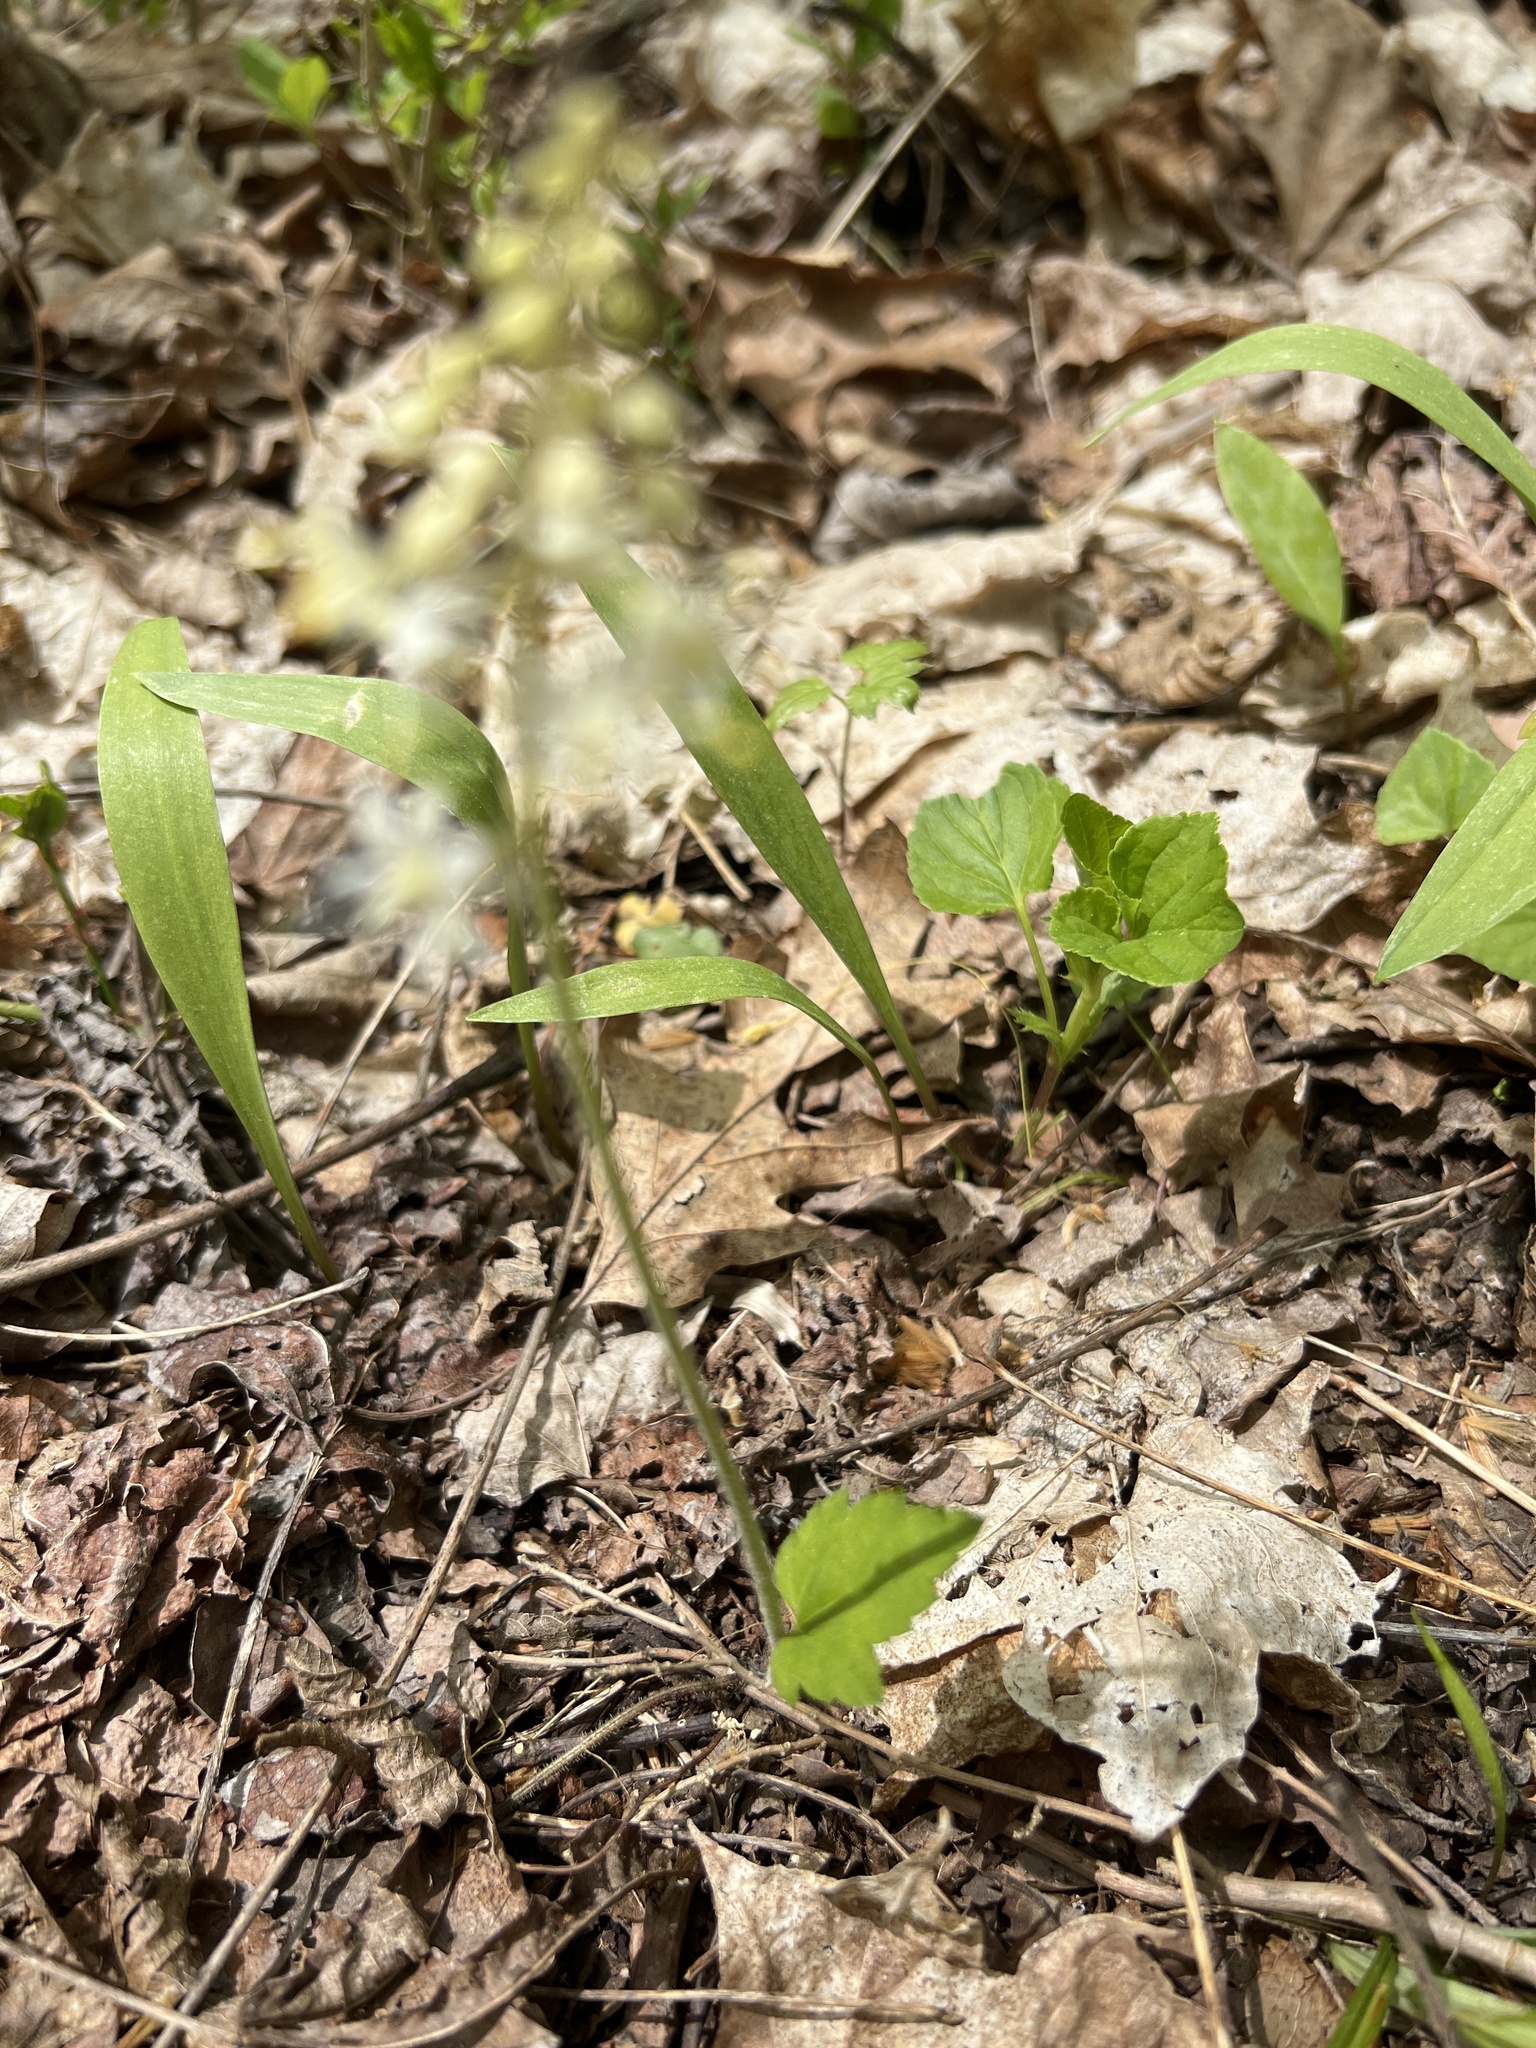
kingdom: Plantae
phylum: Tracheophyta
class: Magnoliopsida
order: Saxifragales
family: Saxifragaceae
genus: Tiarella
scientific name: Tiarella stolonifera
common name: Stoloniferous foamflower
